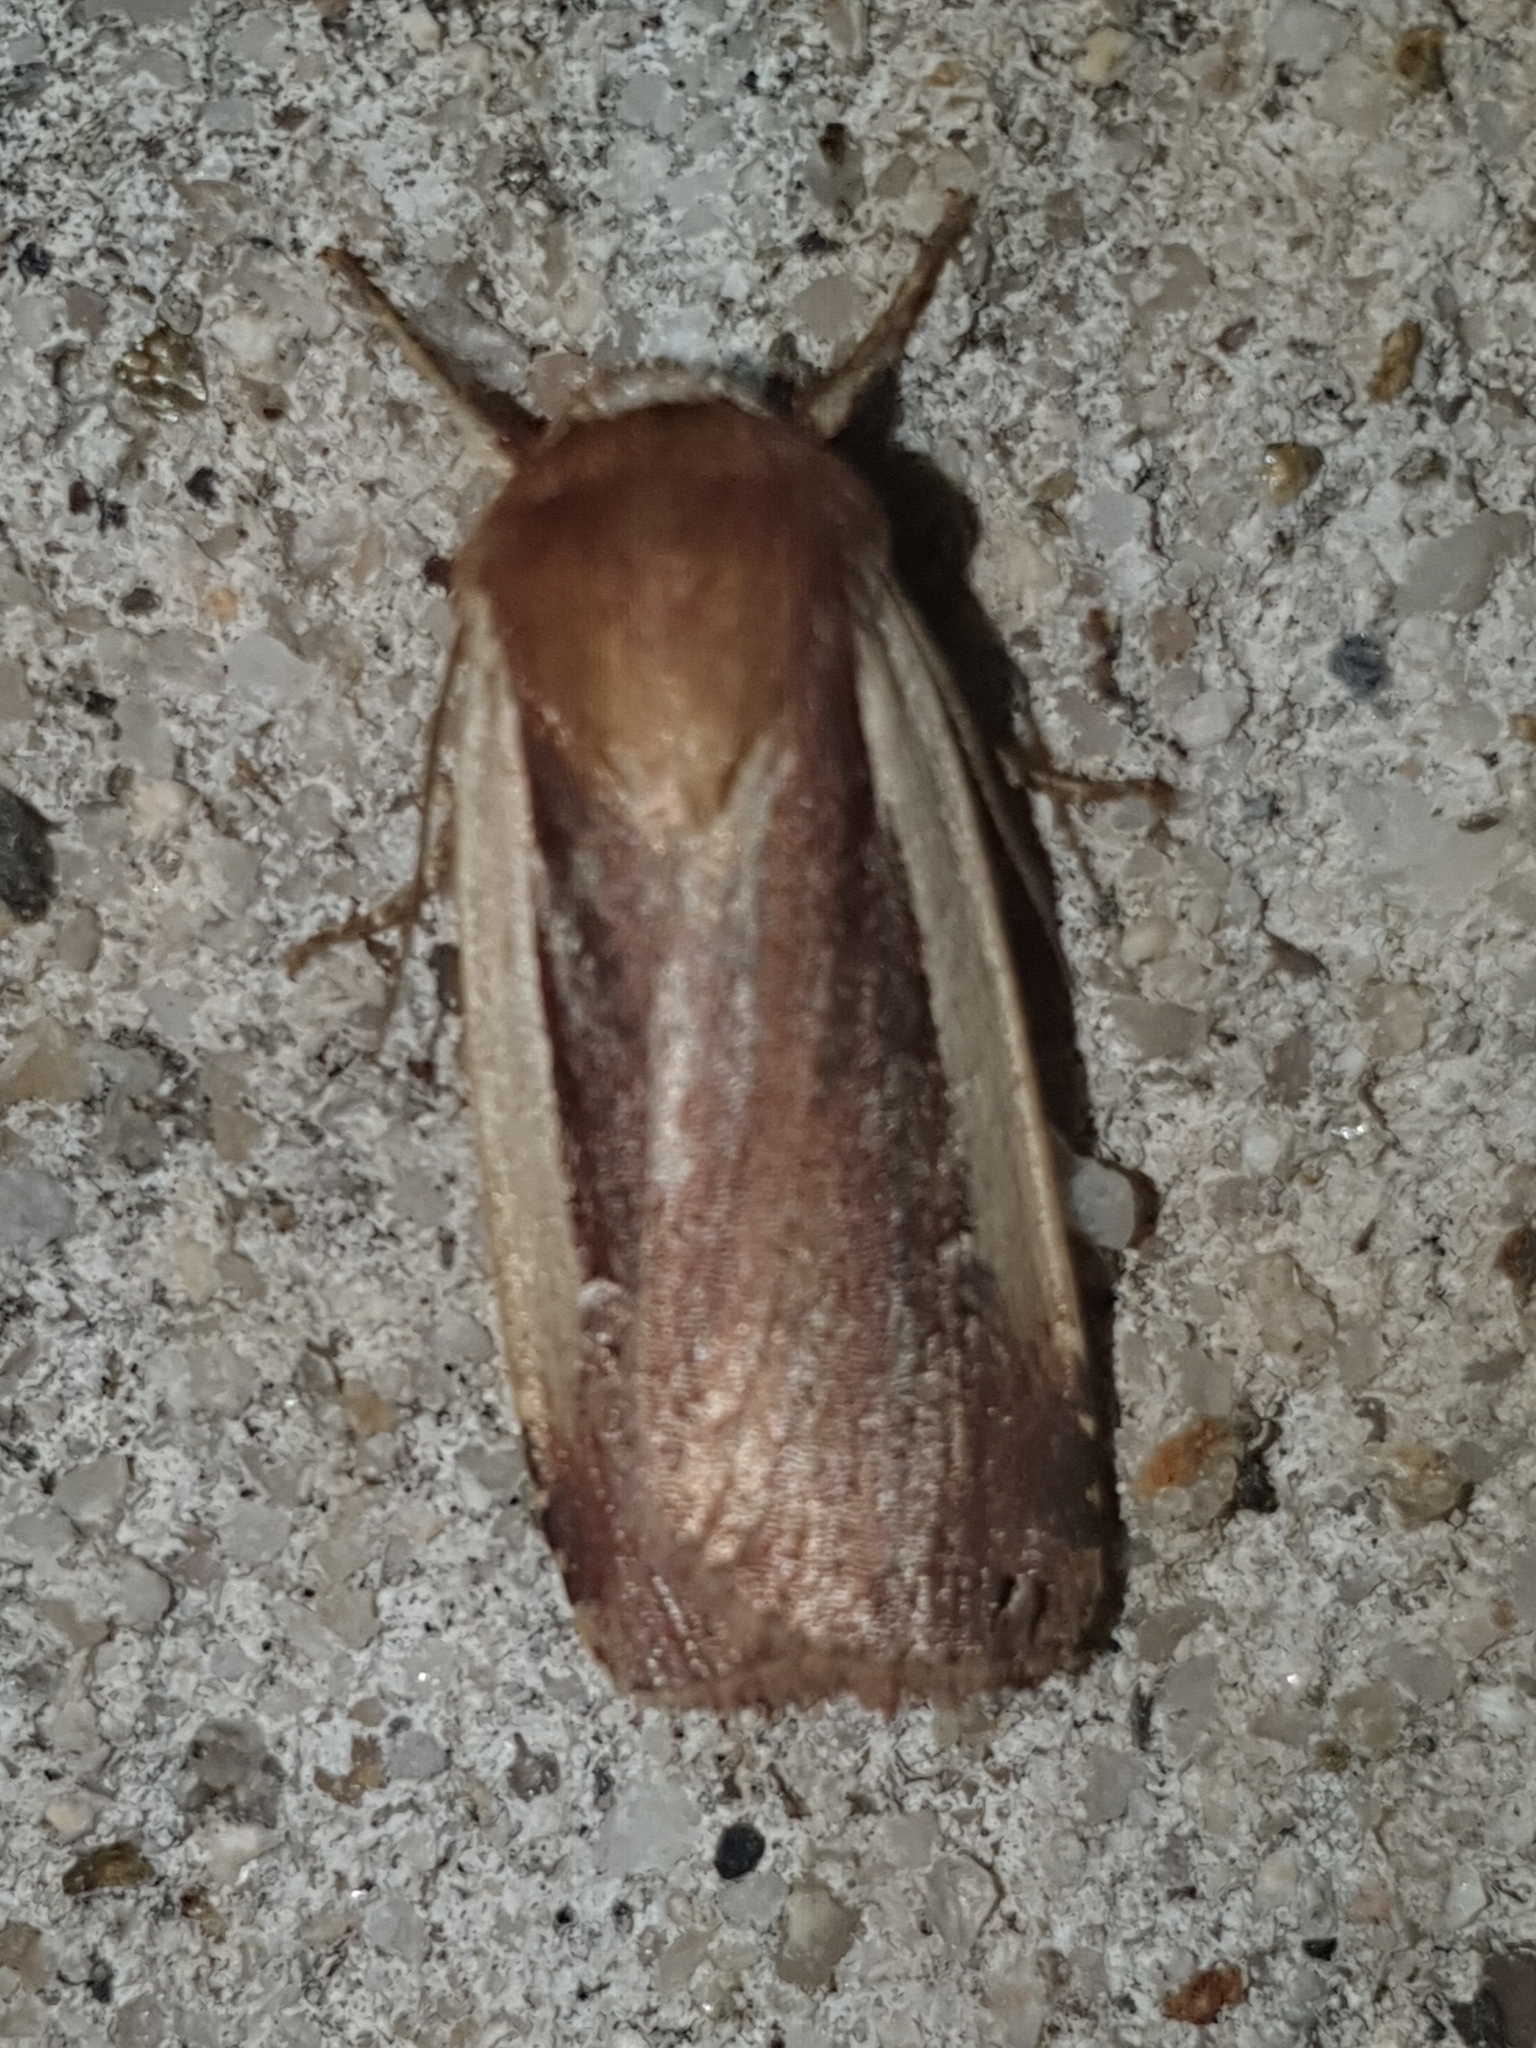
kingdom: Animalia
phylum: Arthropoda
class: Insecta
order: Lepidoptera
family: Noctuidae
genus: Ochropleura
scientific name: Ochropleura plecta
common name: Flame shoulder
